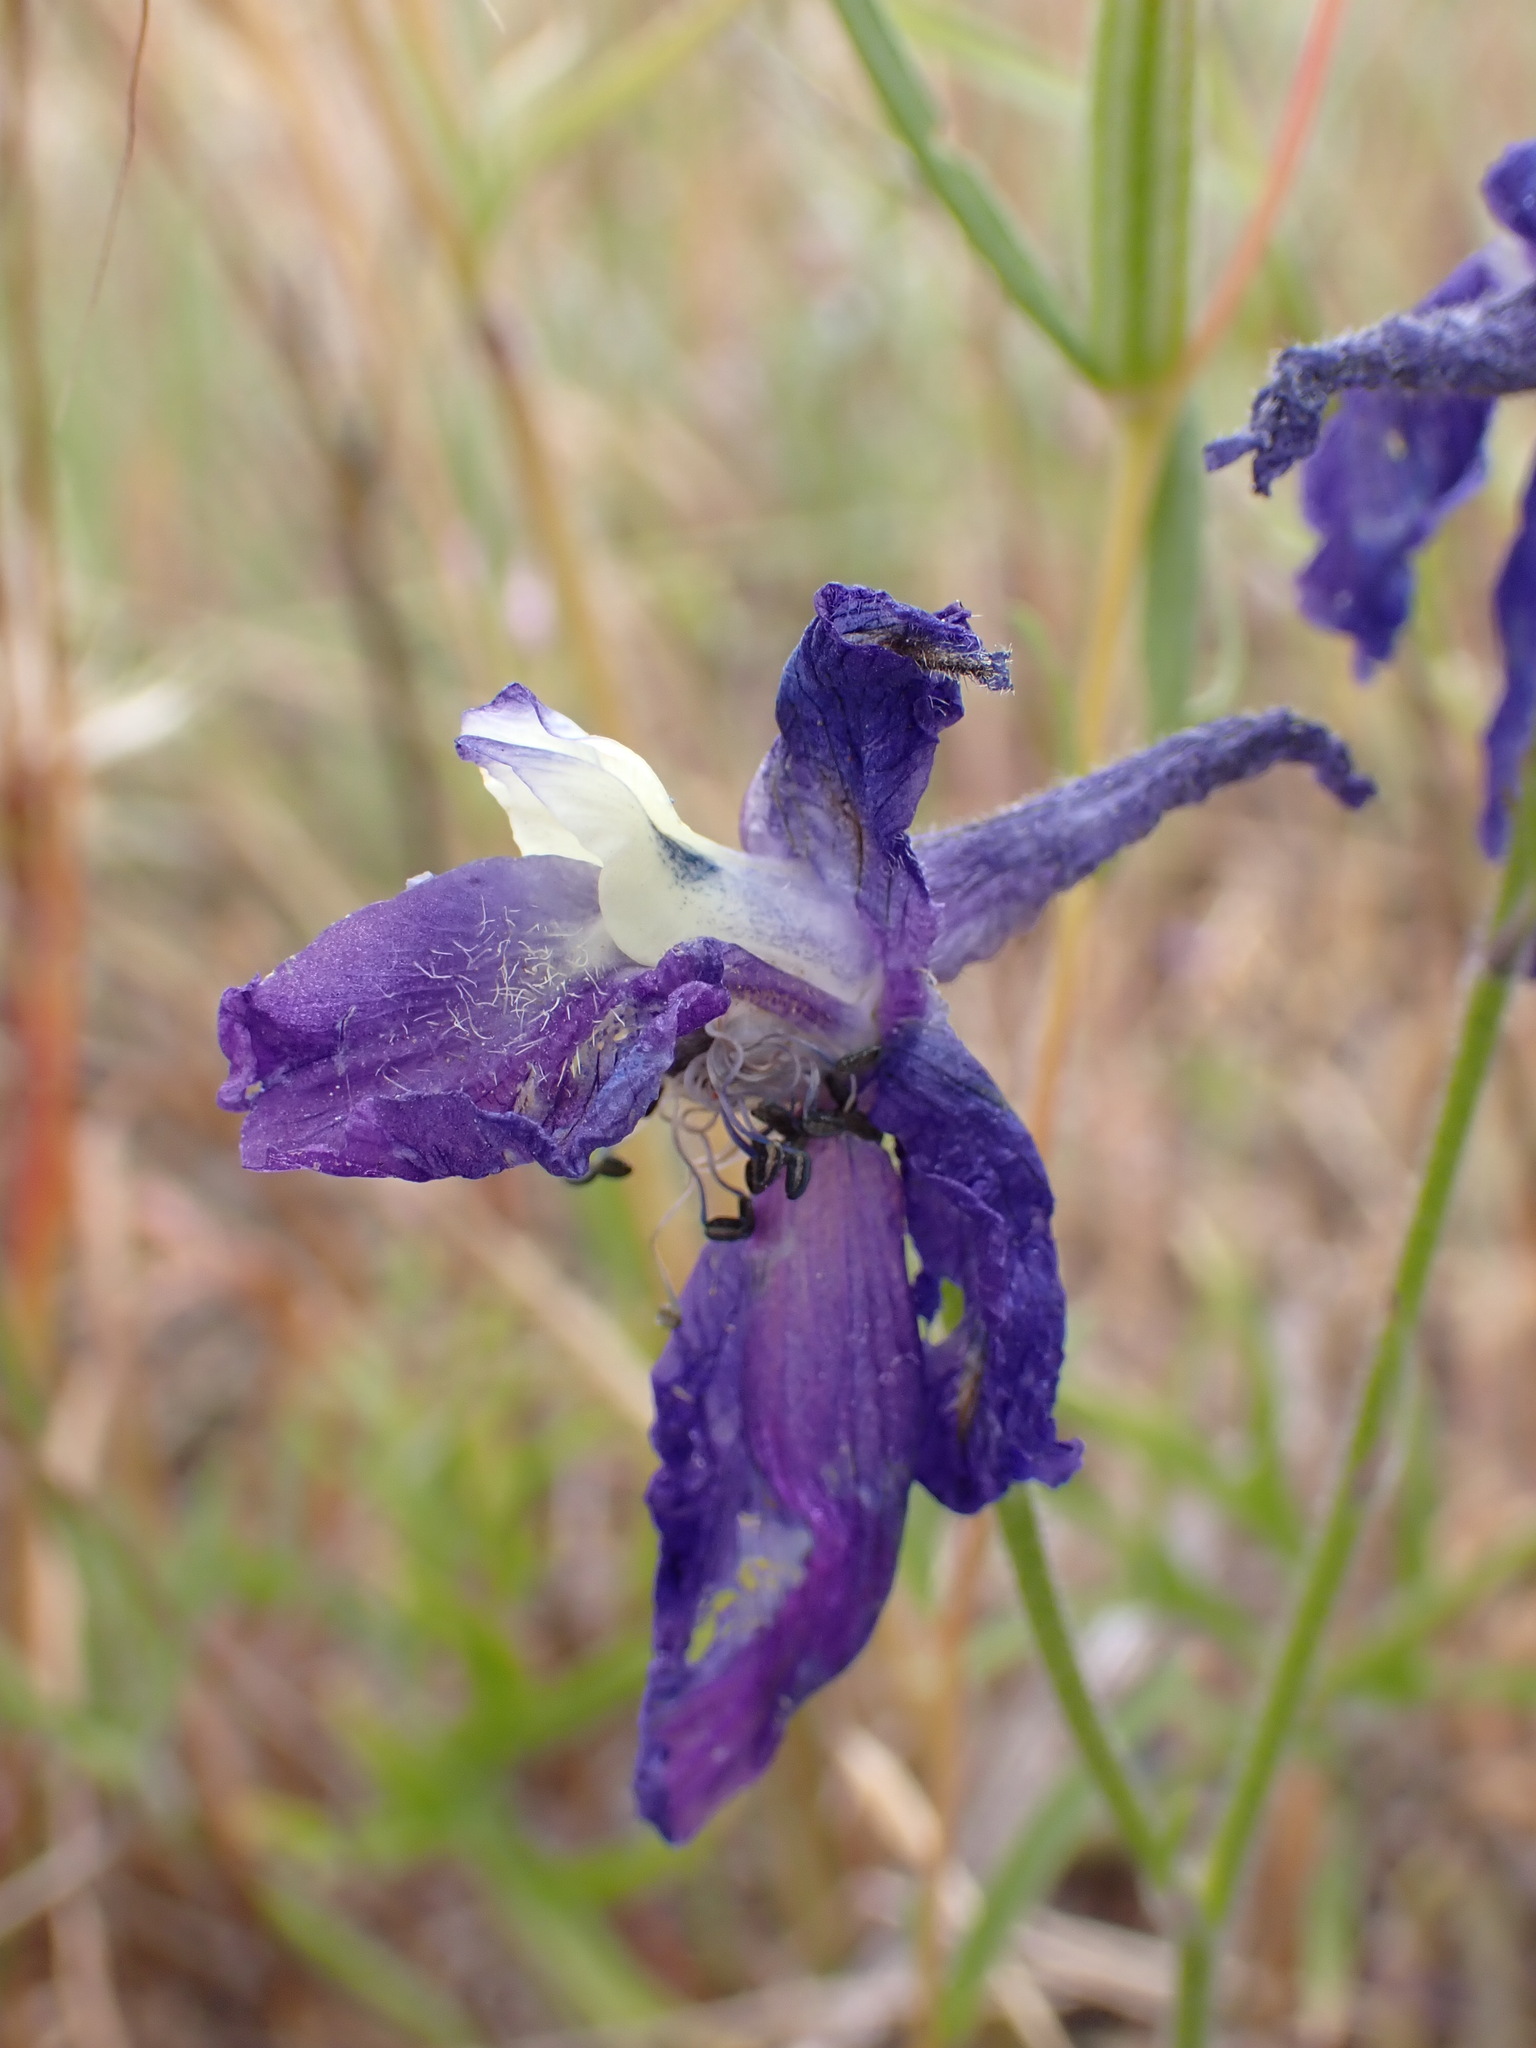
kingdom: Plantae
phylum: Tracheophyta
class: Magnoliopsida
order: Ranunculales
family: Ranunculaceae
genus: Delphinium
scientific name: Delphinium variegatum
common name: Royal larkspur
